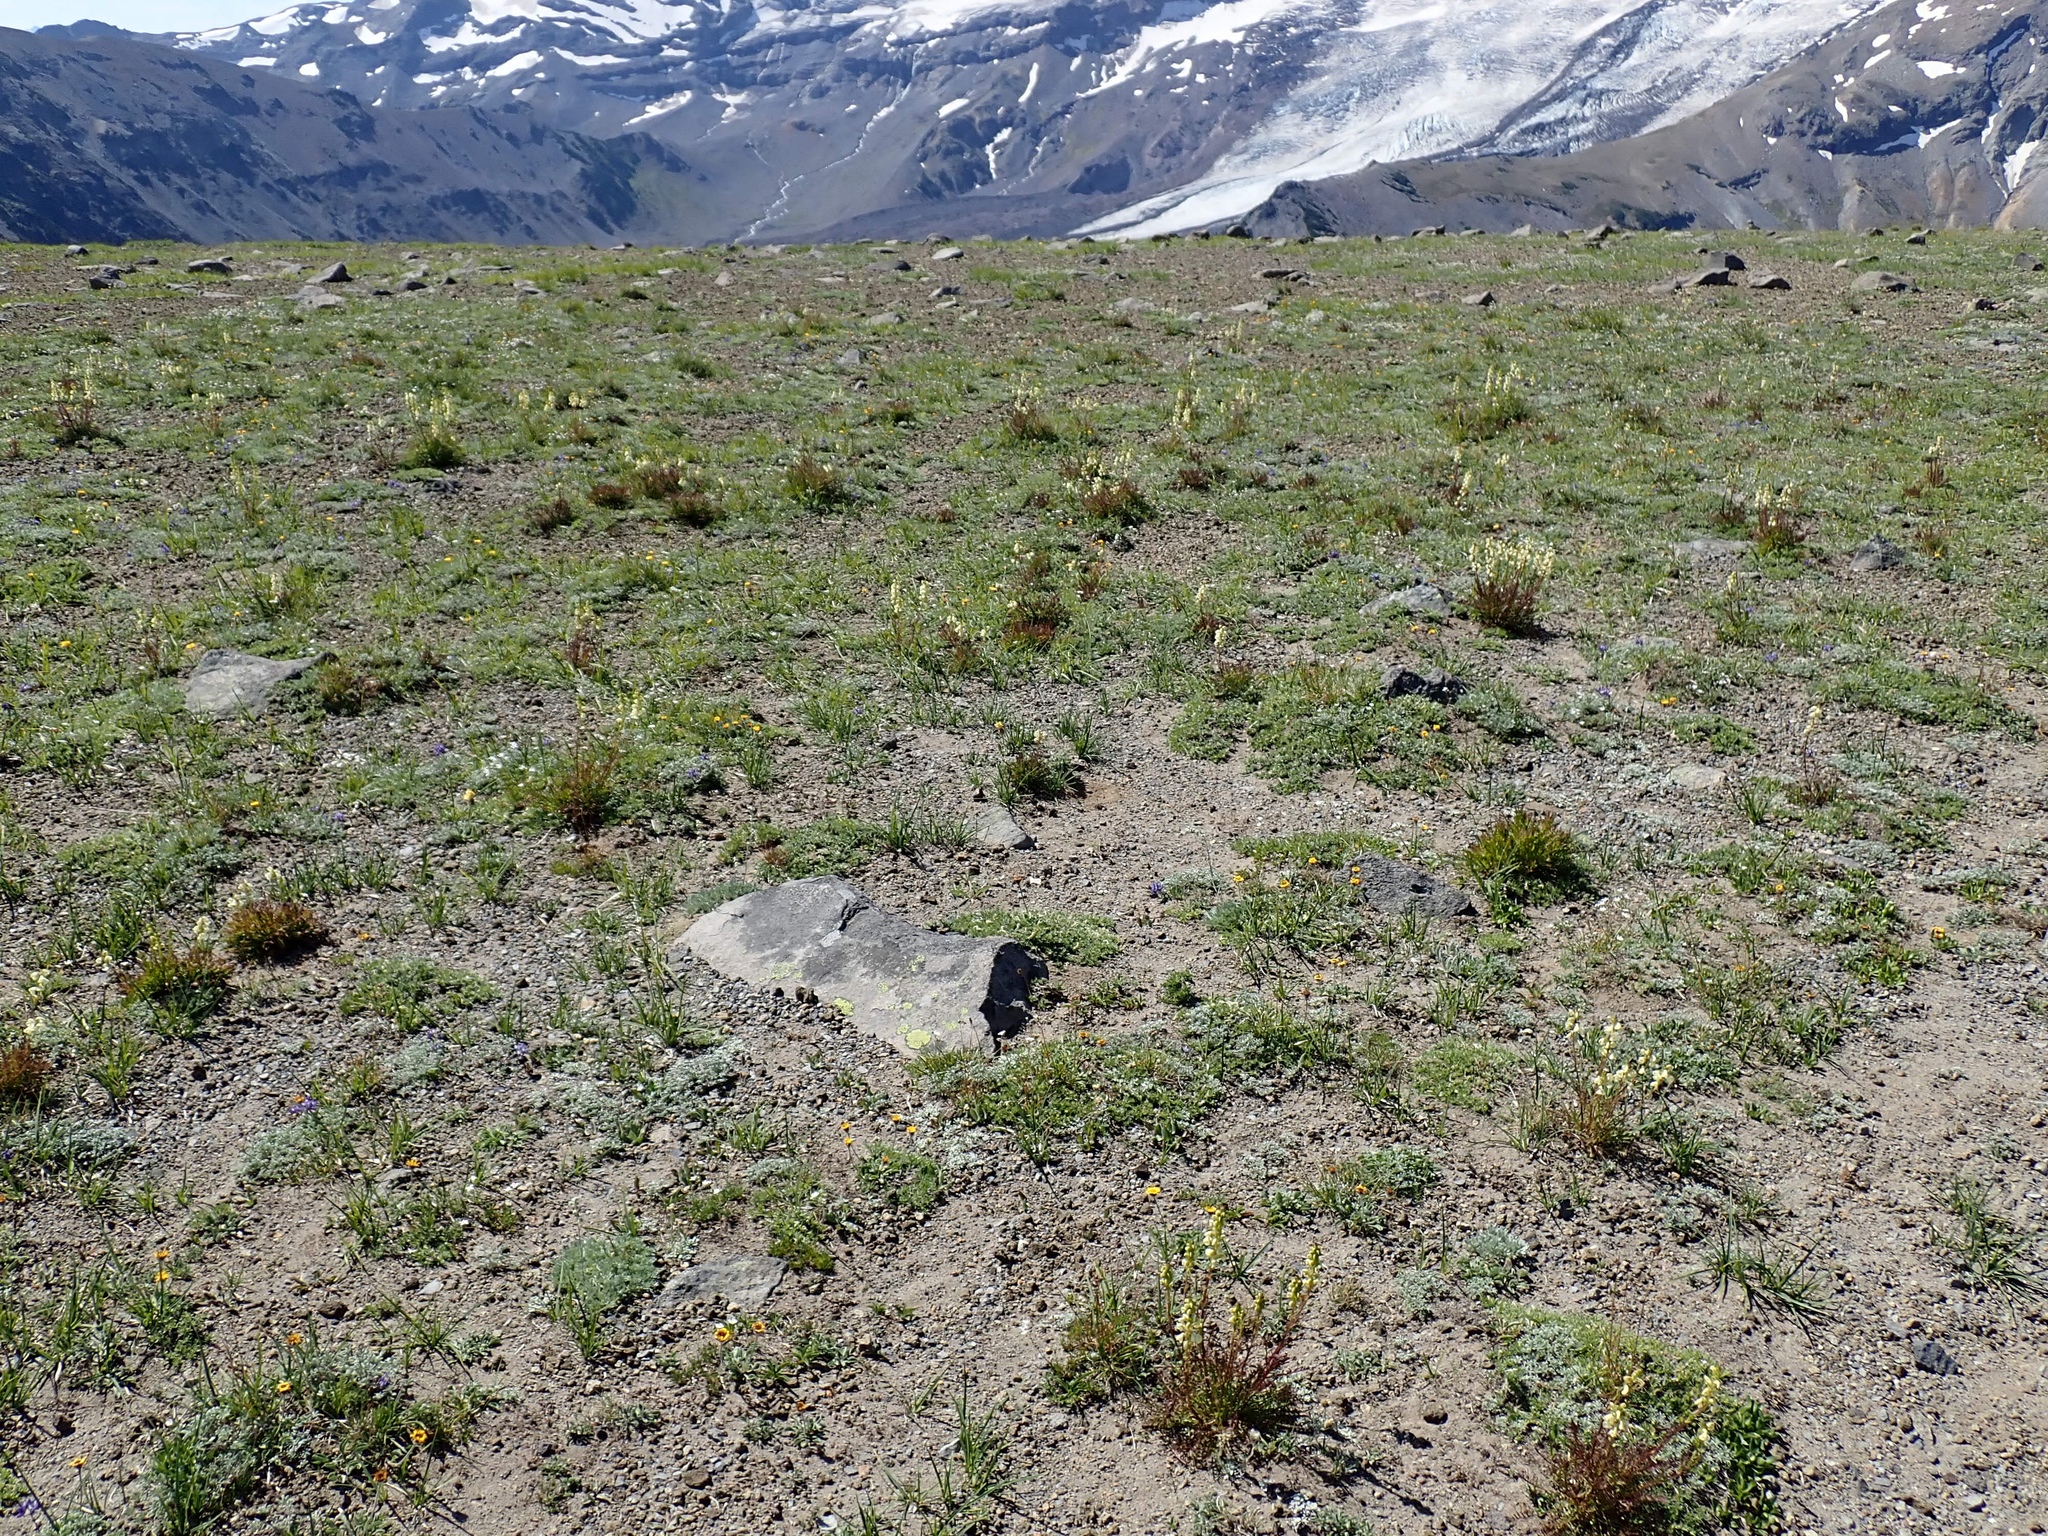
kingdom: Plantae
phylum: Tracheophyta
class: Magnoliopsida
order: Lamiales
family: Orobanchaceae
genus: Pedicularis
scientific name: Pedicularis contorta
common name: Coiled lousewort
